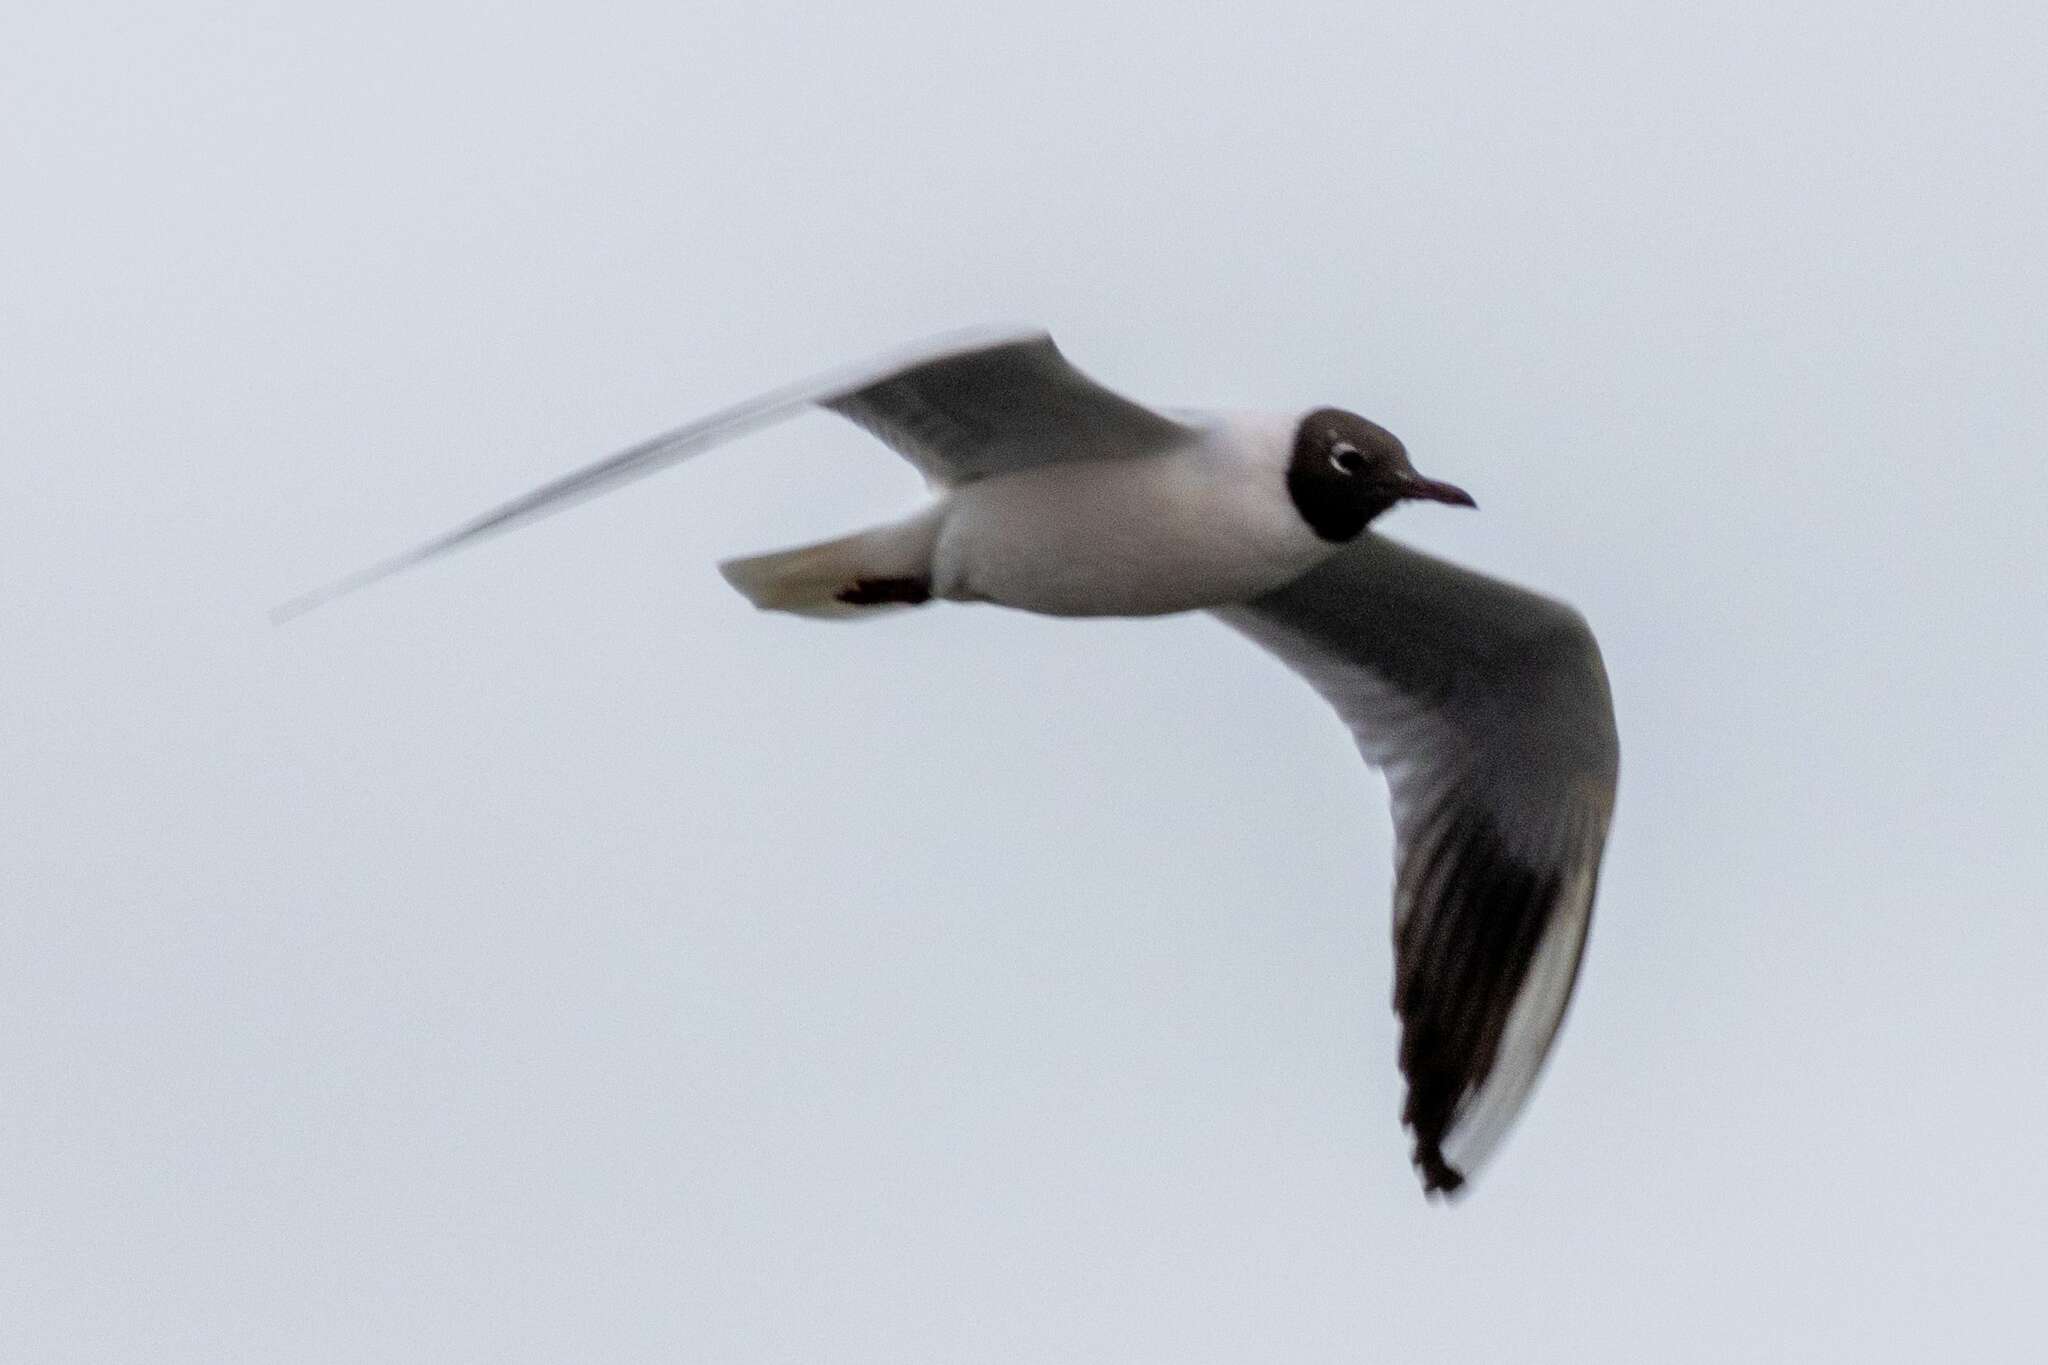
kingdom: Animalia
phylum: Chordata
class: Aves
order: Charadriiformes
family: Laridae
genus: Chroicocephalus
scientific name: Chroicocephalus ridibundus
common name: Black-headed gull
